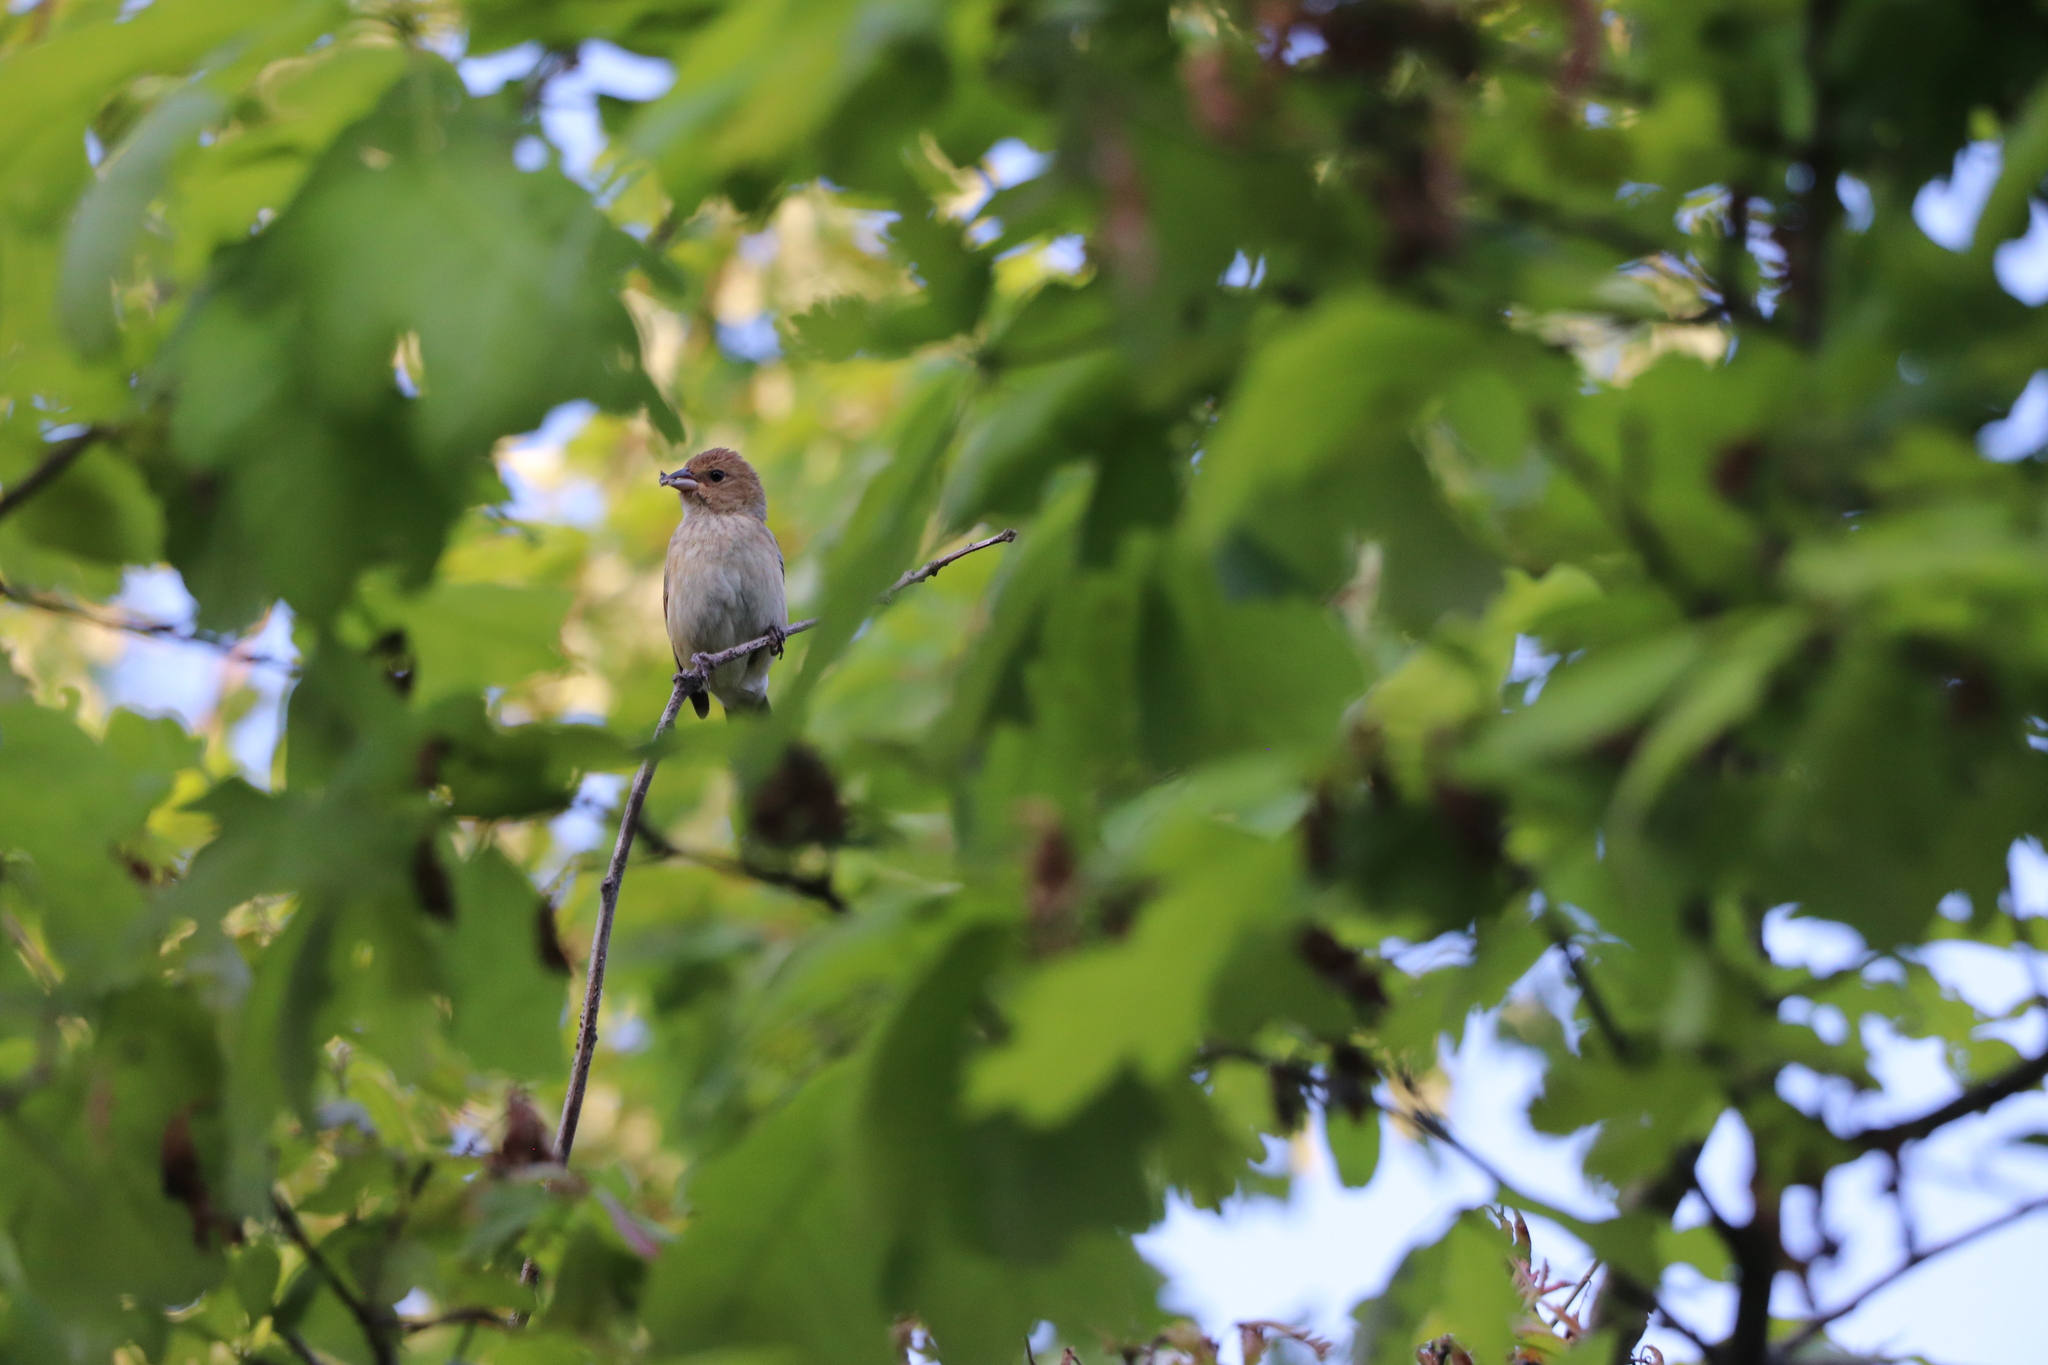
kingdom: Animalia
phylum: Chordata
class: Aves
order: Passeriformes
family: Cardinalidae
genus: Passerina
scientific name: Passerina cyanea
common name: Indigo bunting
